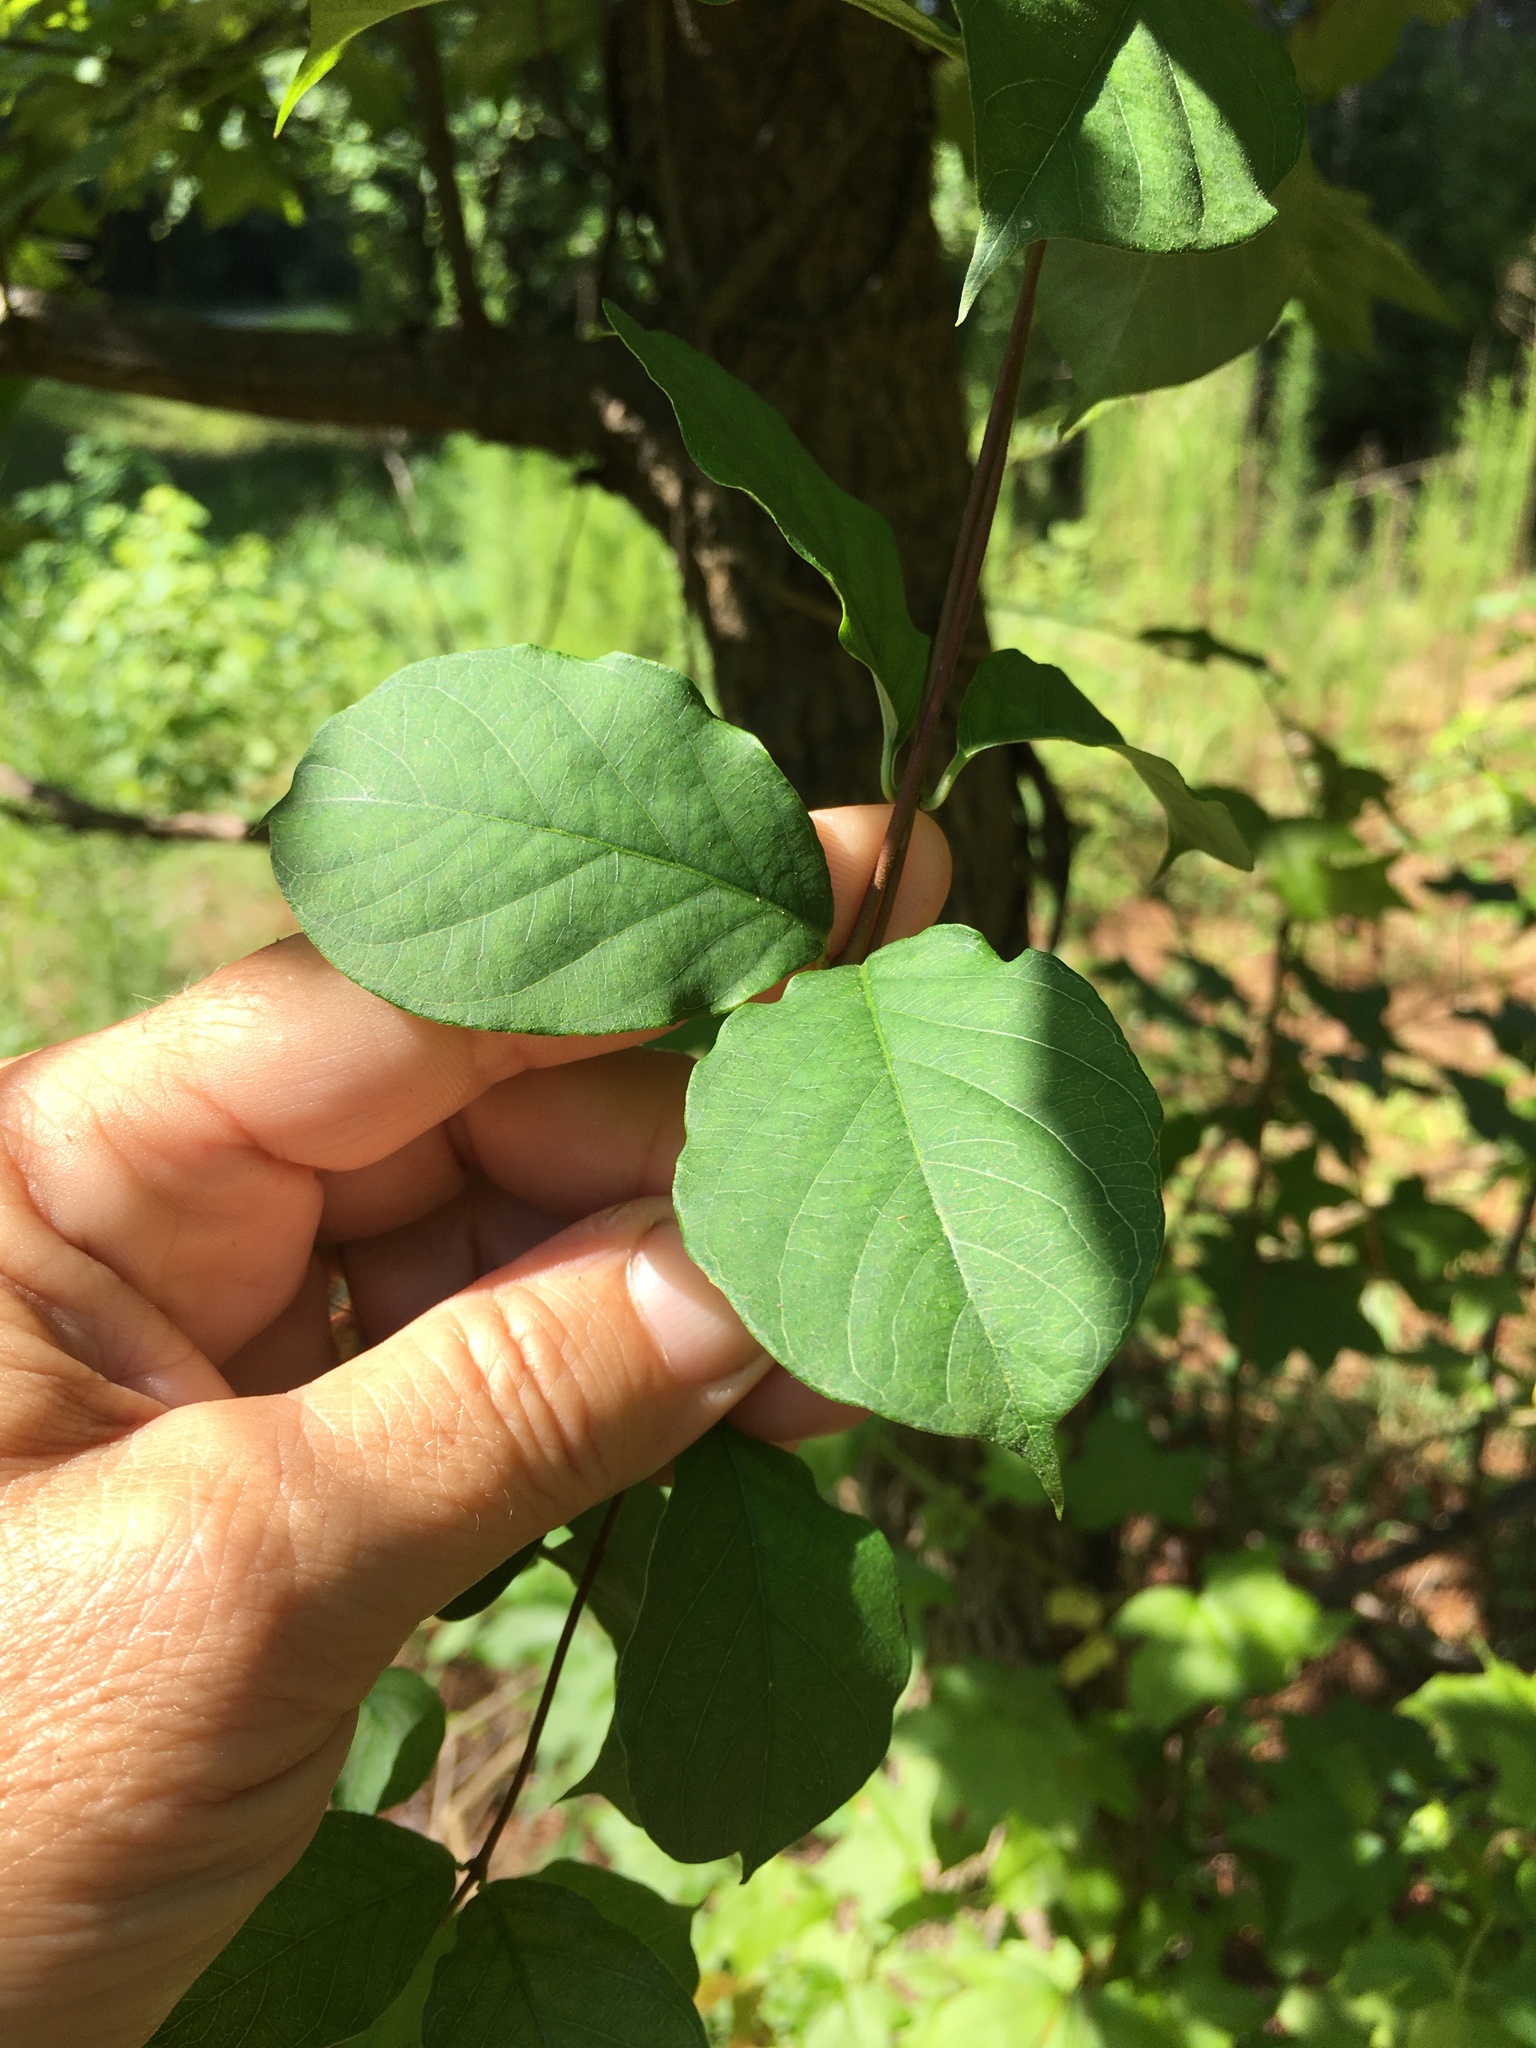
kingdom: Plantae
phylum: Tracheophyta
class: Magnoliopsida
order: Gentianales
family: Apocynaceae
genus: Thyrsanthella
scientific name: Thyrsanthella difformis
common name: Climbing dogbane
